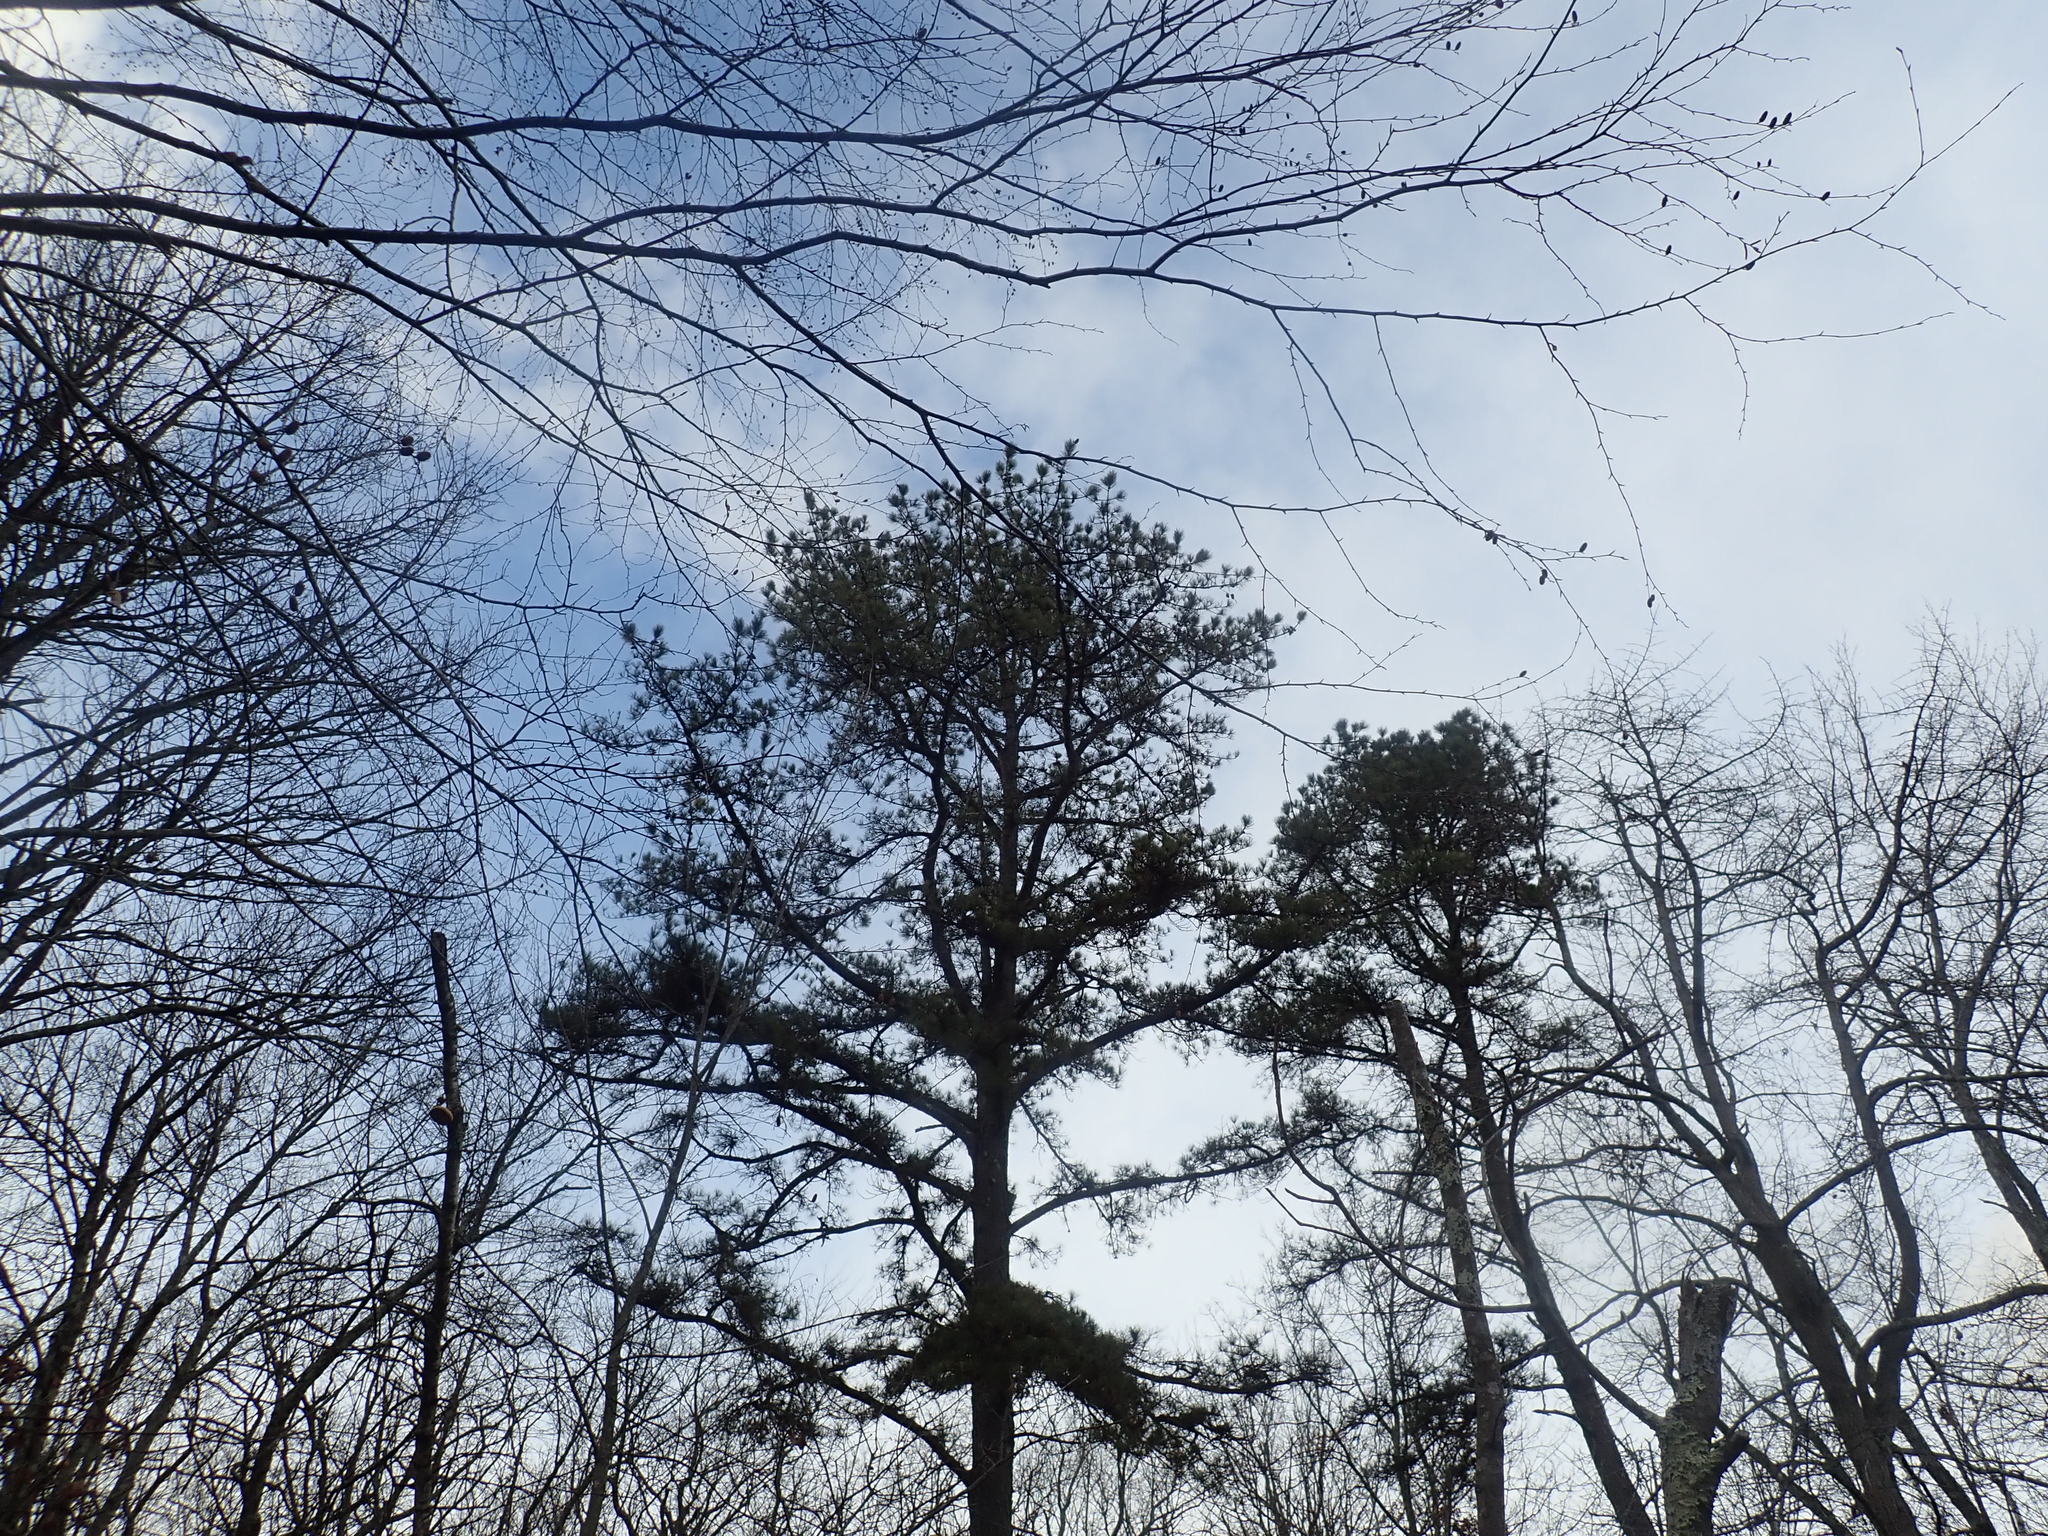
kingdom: Plantae
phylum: Tracheophyta
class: Pinopsida
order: Pinales
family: Pinaceae
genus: Pinus
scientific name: Pinus rigida
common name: Pitch pine
